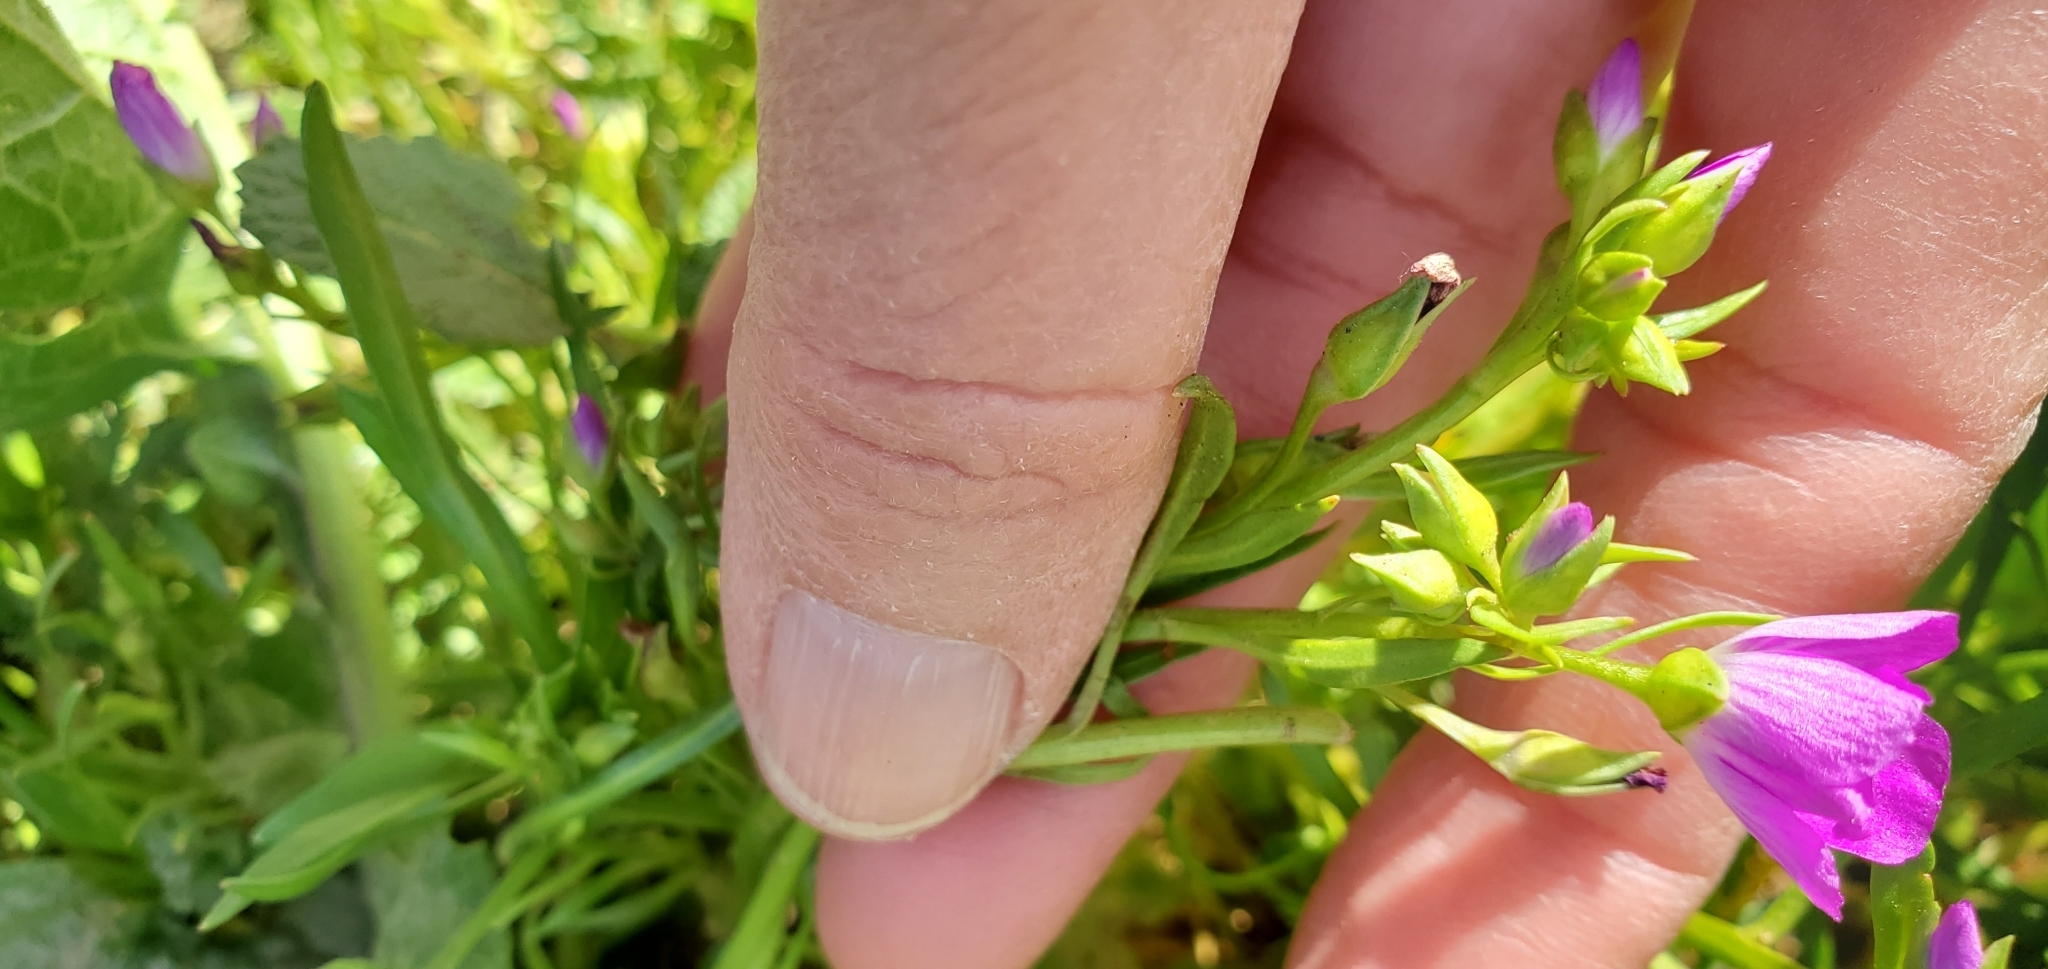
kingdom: Plantae
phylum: Tracheophyta
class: Magnoliopsida
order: Caryophyllales
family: Montiaceae
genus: Calandrinia
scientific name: Calandrinia menziesii
